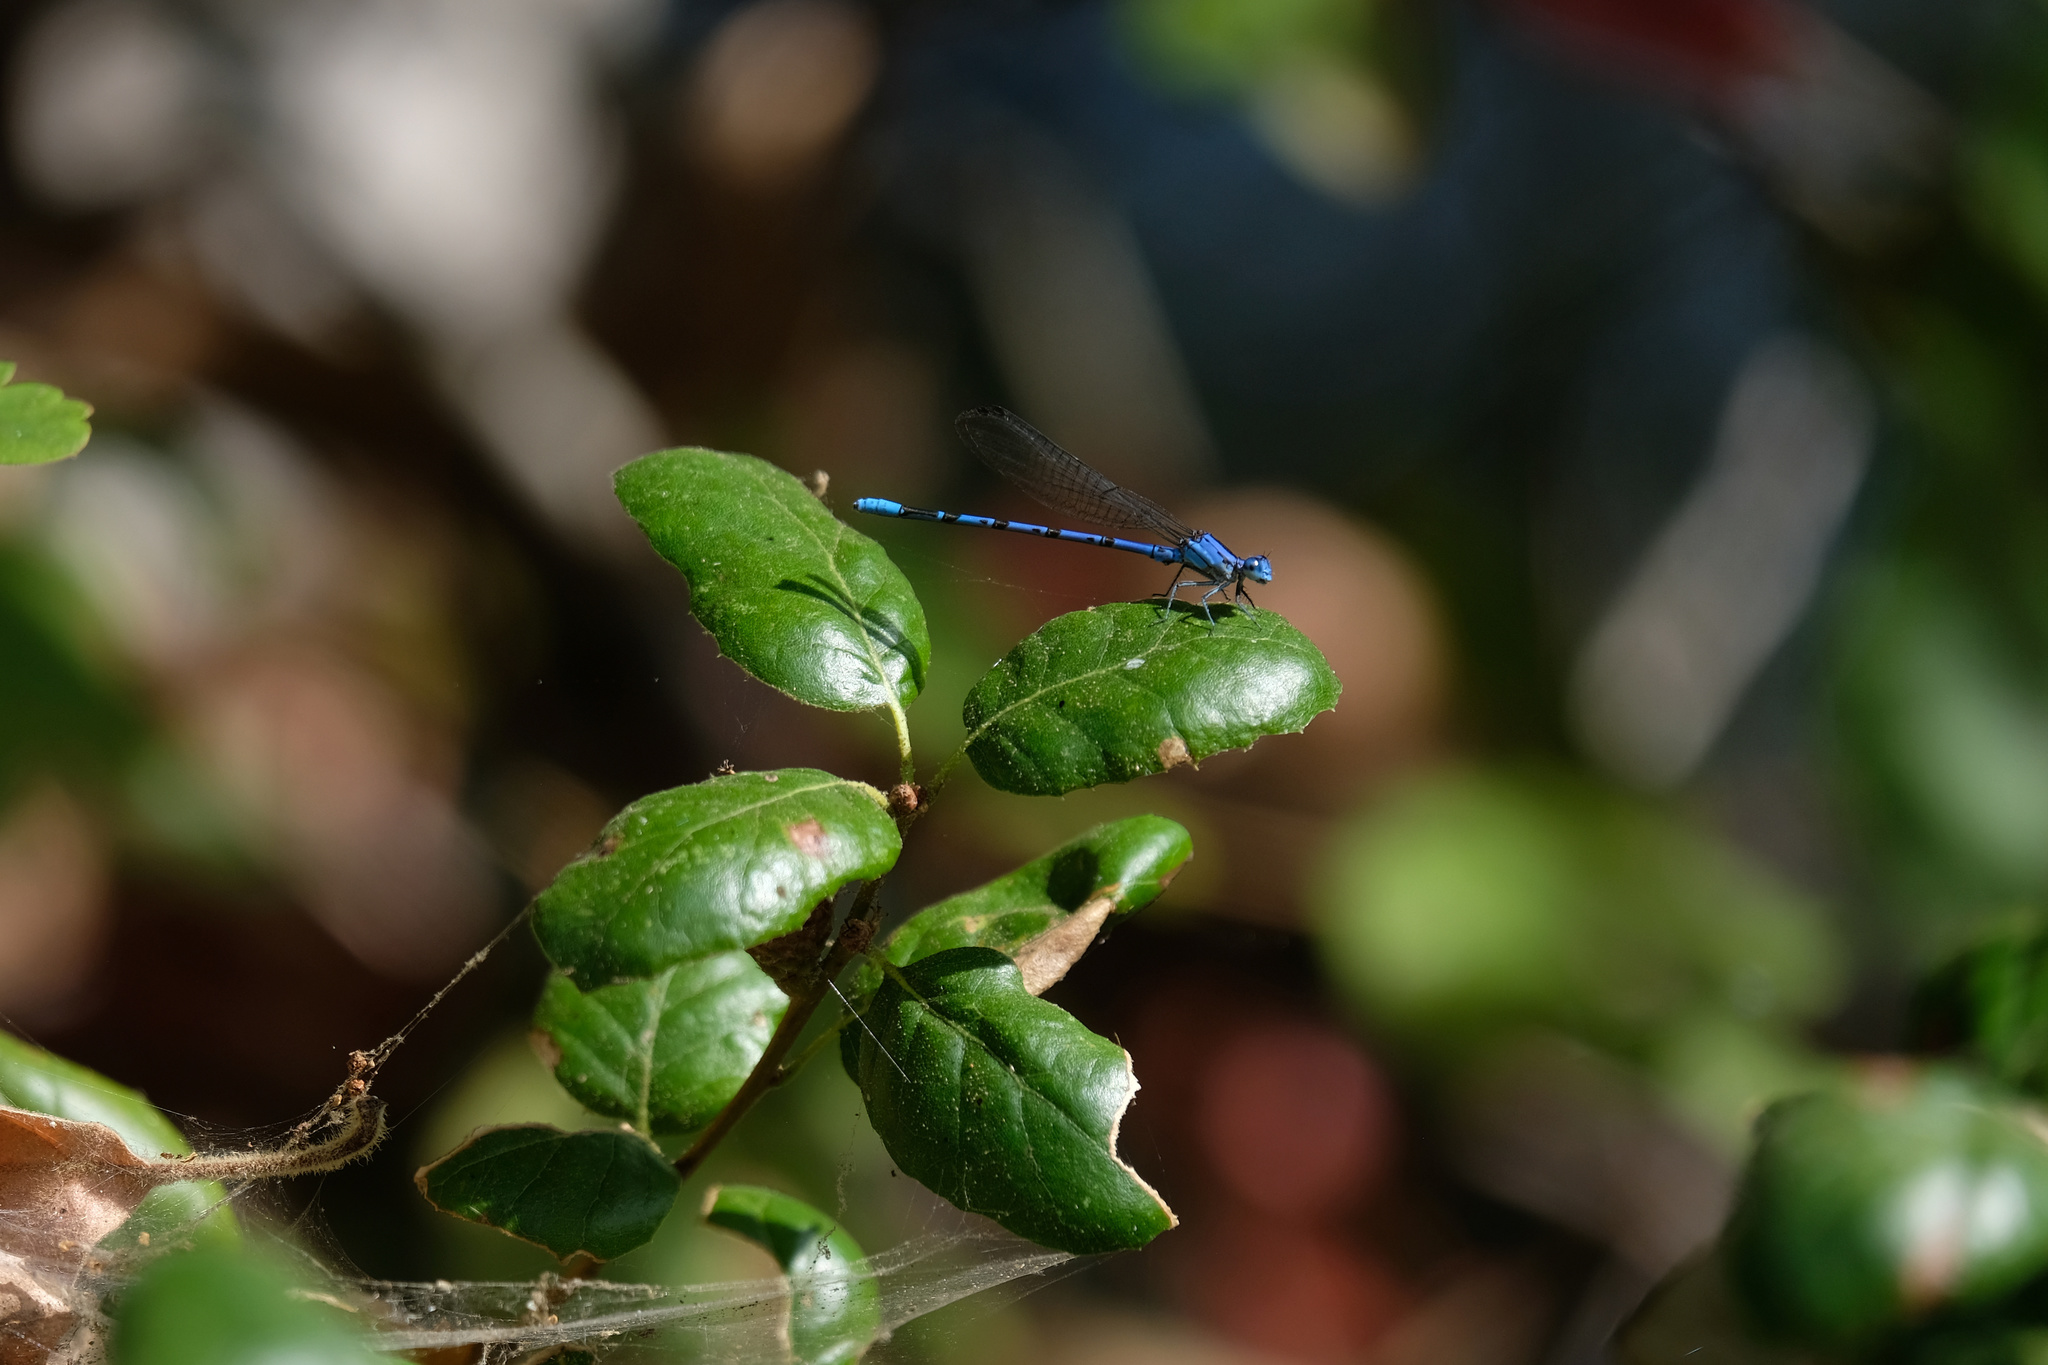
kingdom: Animalia
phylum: Arthropoda
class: Insecta
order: Odonata
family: Coenagrionidae
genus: Argia
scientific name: Argia vivida
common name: Vivid dancer
